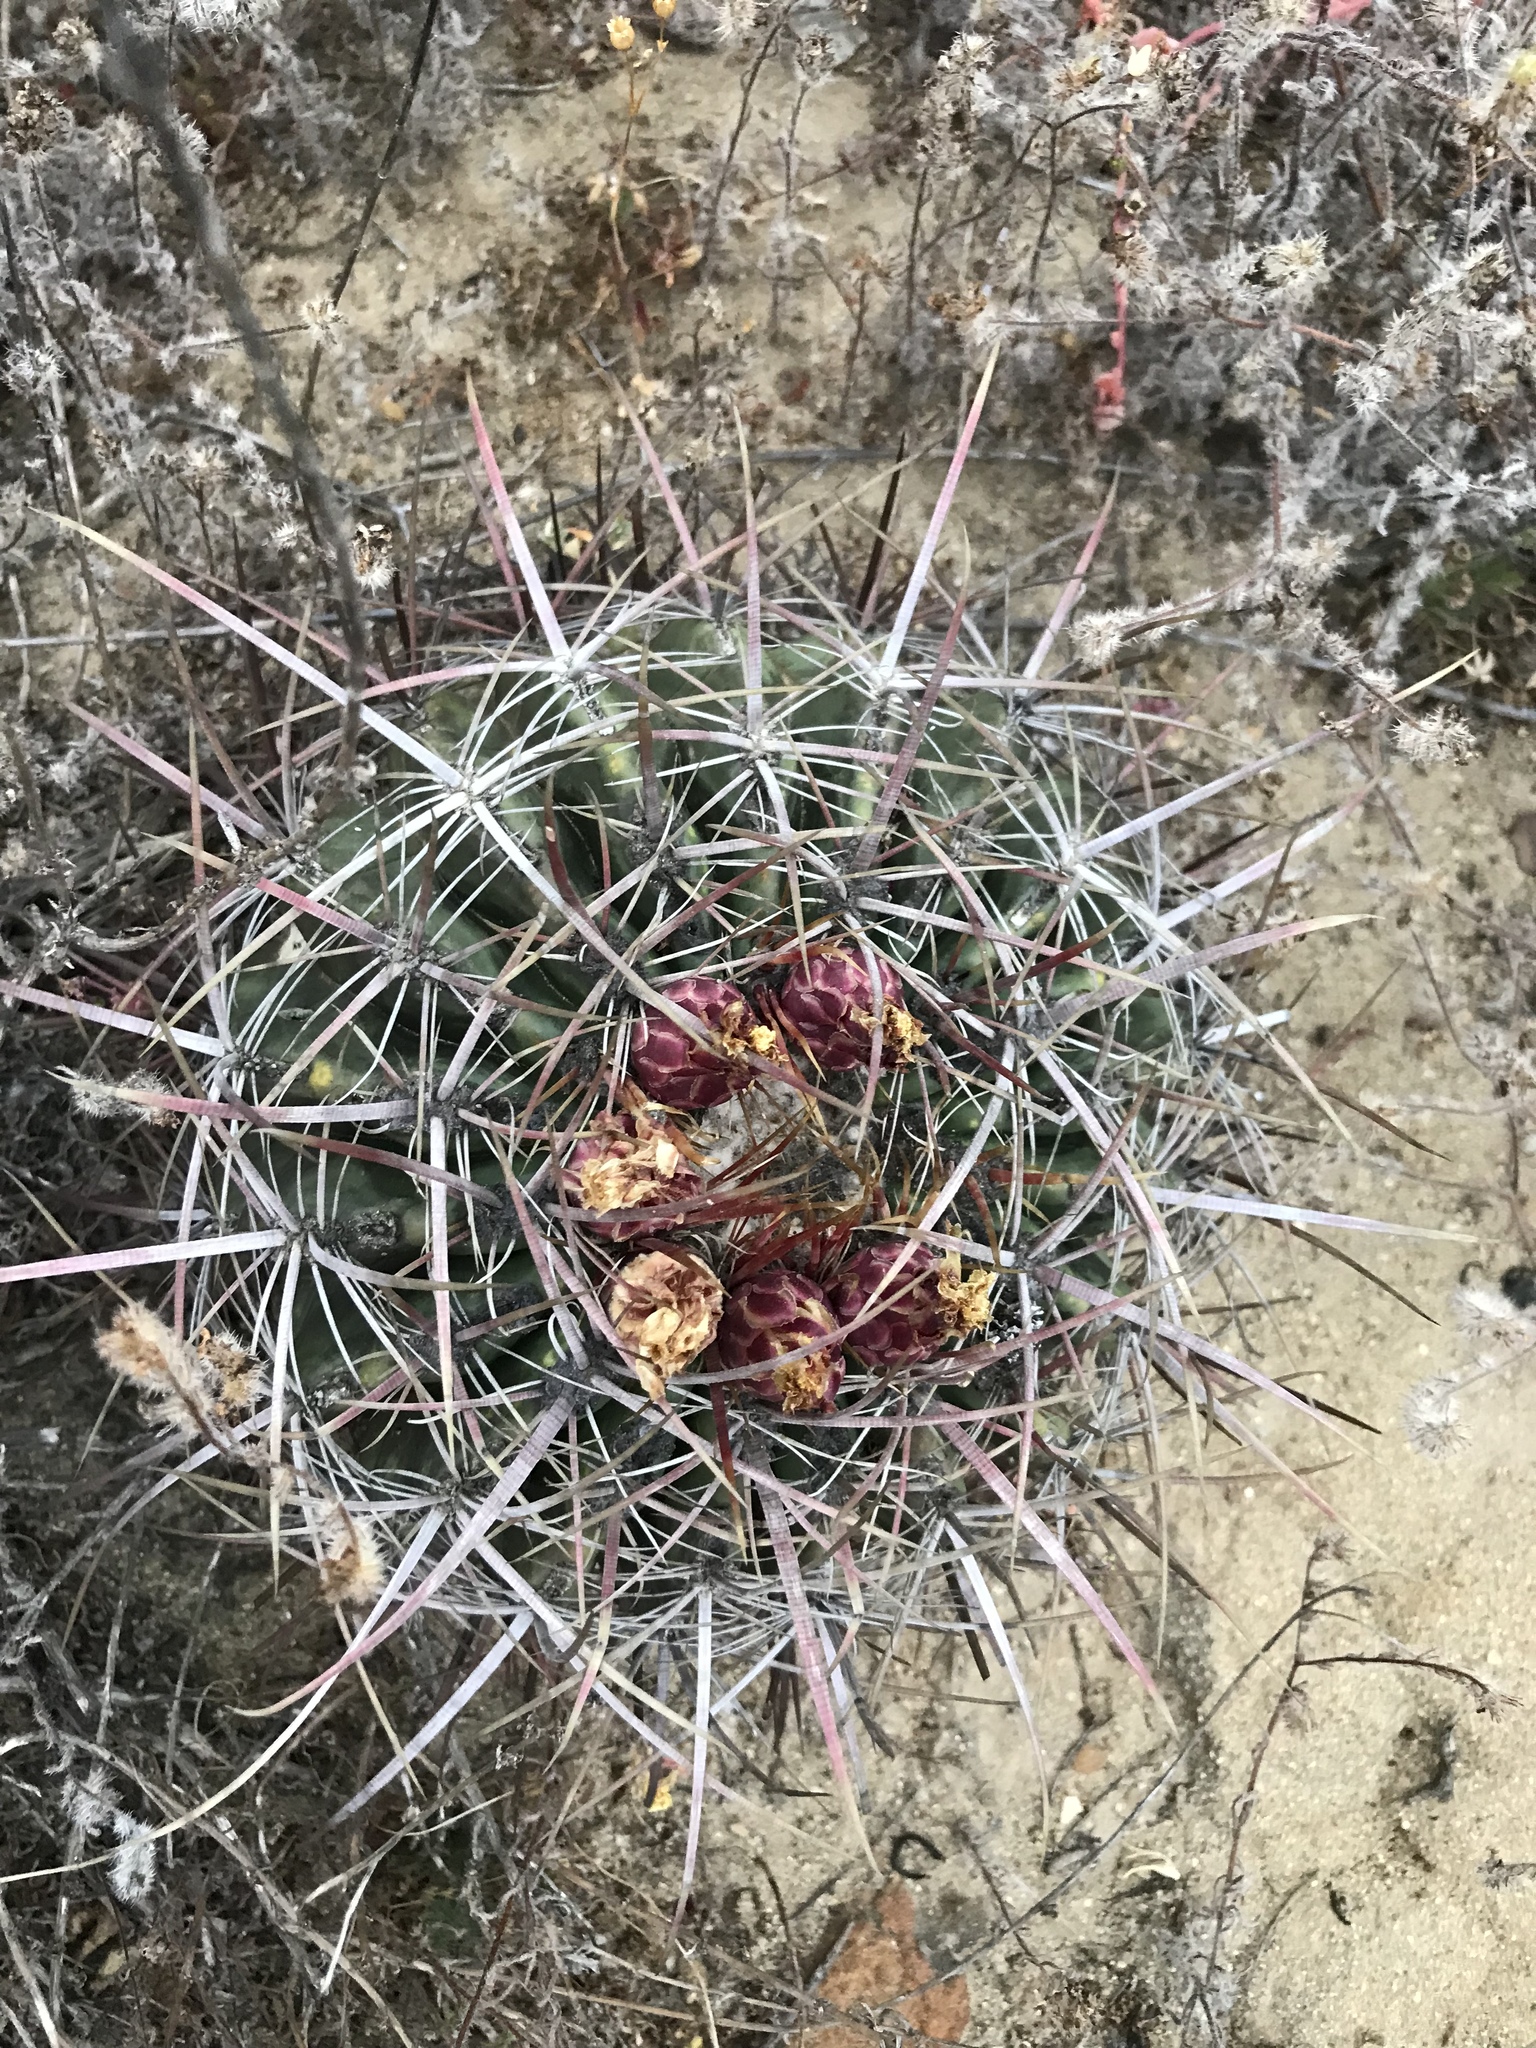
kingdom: Plantae
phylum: Tracheophyta
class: Magnoliopsida
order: Caryophyllales
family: Cactaceae
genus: Ferocactus
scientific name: Ferocactus viridescens
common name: San diego barrel cactus
